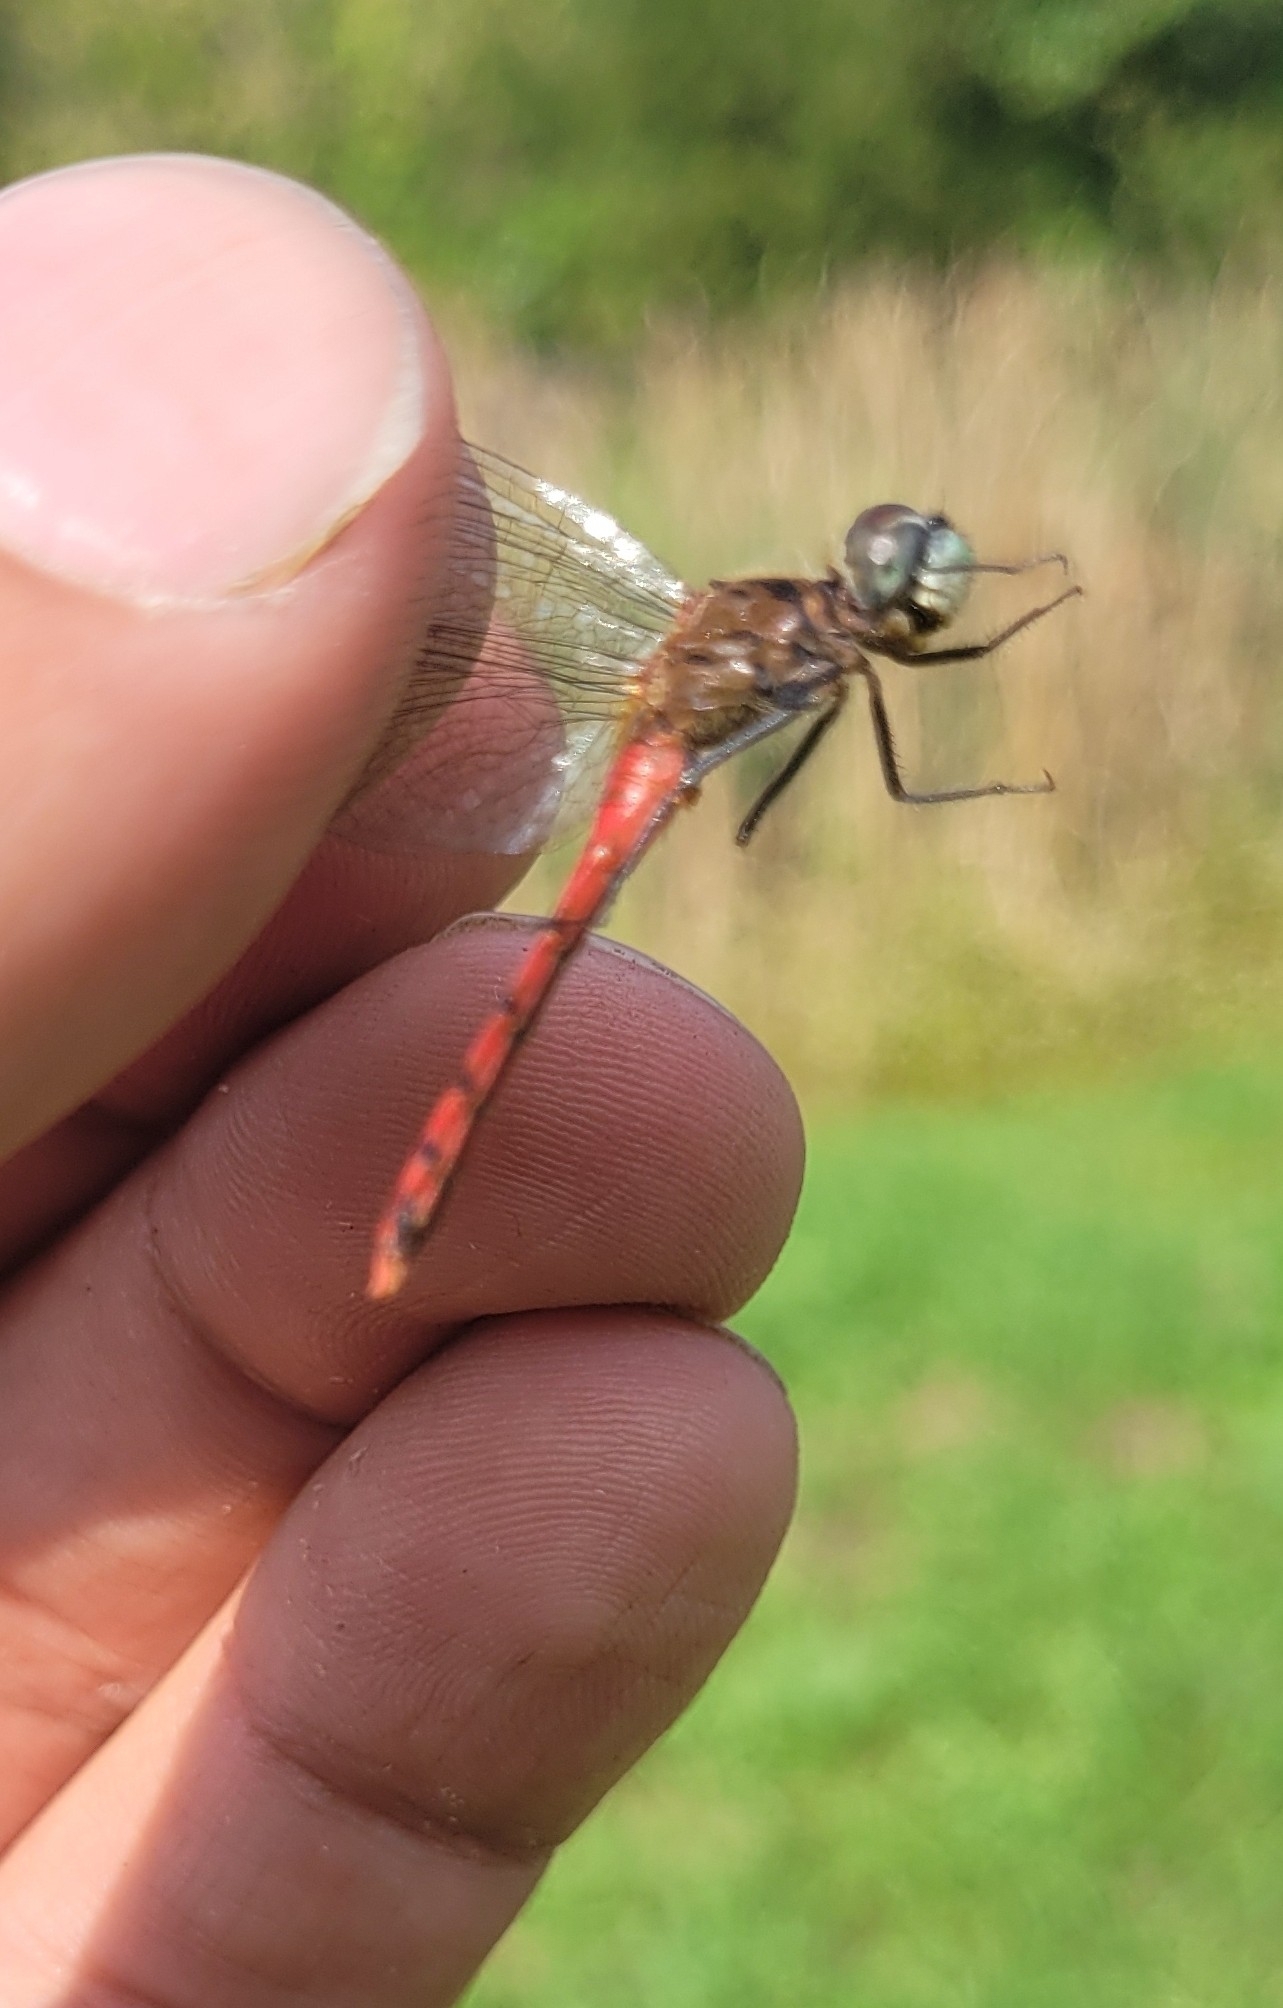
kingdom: Animalia
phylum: Arthropoda
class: Insecta
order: Odonata
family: Libellulidae
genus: Sympetrum
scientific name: Sympetrum cordulegaster
